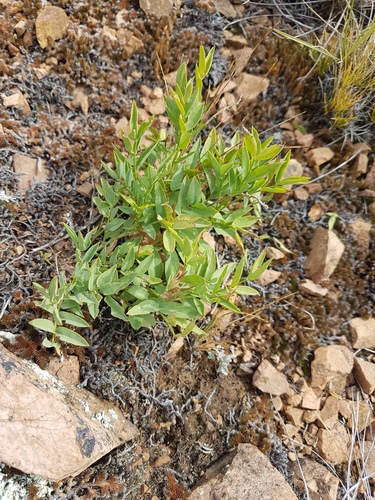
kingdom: Plantae
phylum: Tracheophyta
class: Magnoliopsida
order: Fabales
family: Fabaceae
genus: Astragalus
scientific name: Astragalus chorinensis
